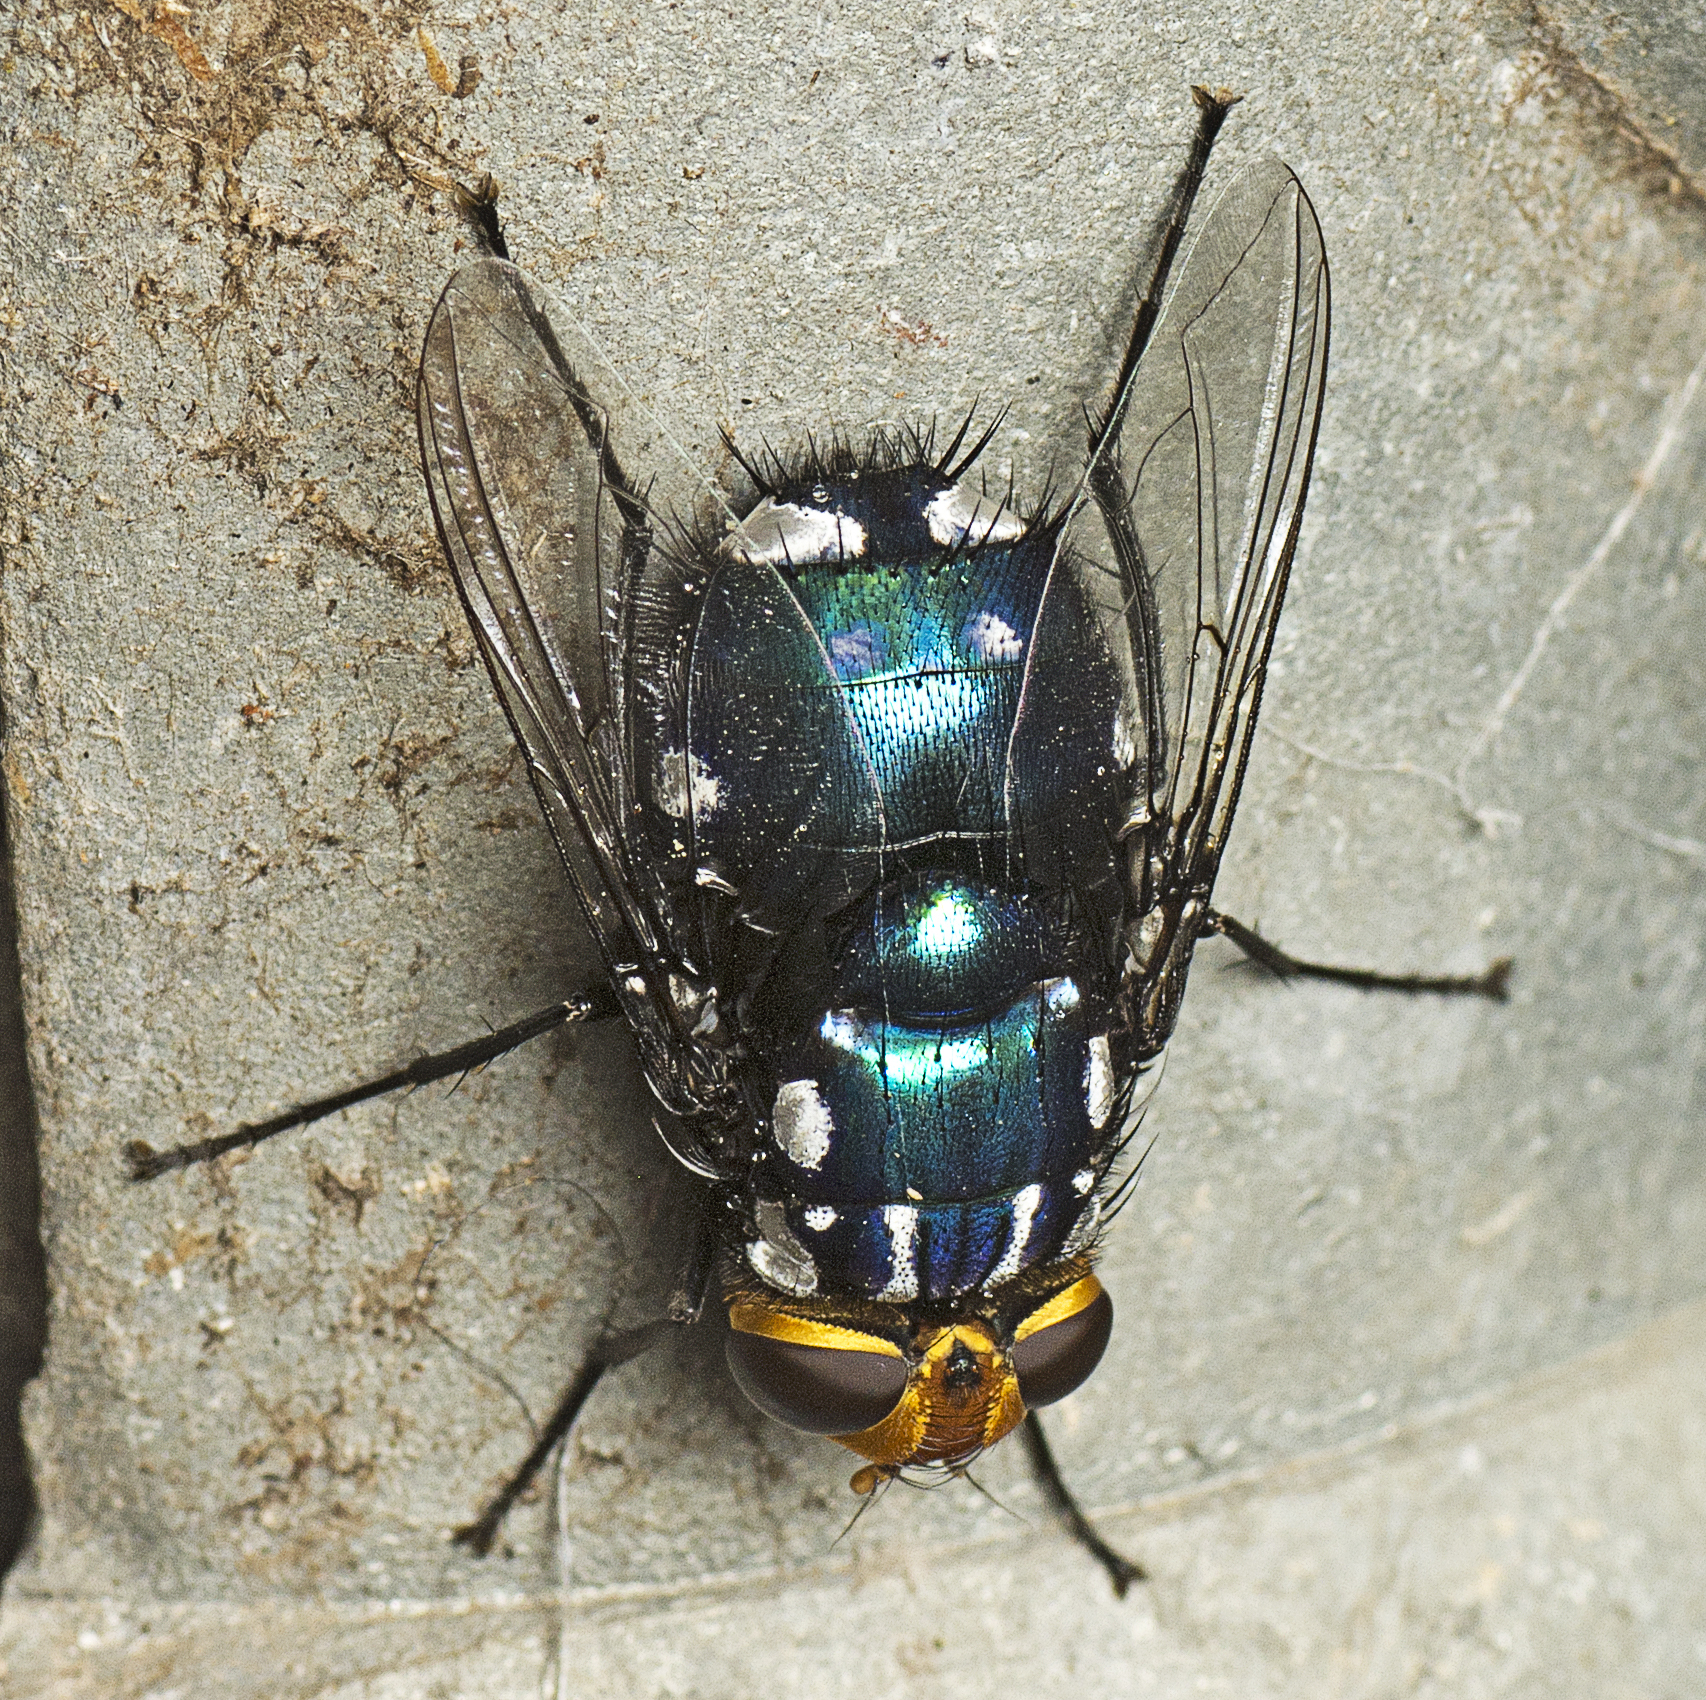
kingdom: Animalia
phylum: Arthropoda
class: Insecta
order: Diptera
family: Tachinidae
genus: Rutilia
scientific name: Rutilia argentifera
